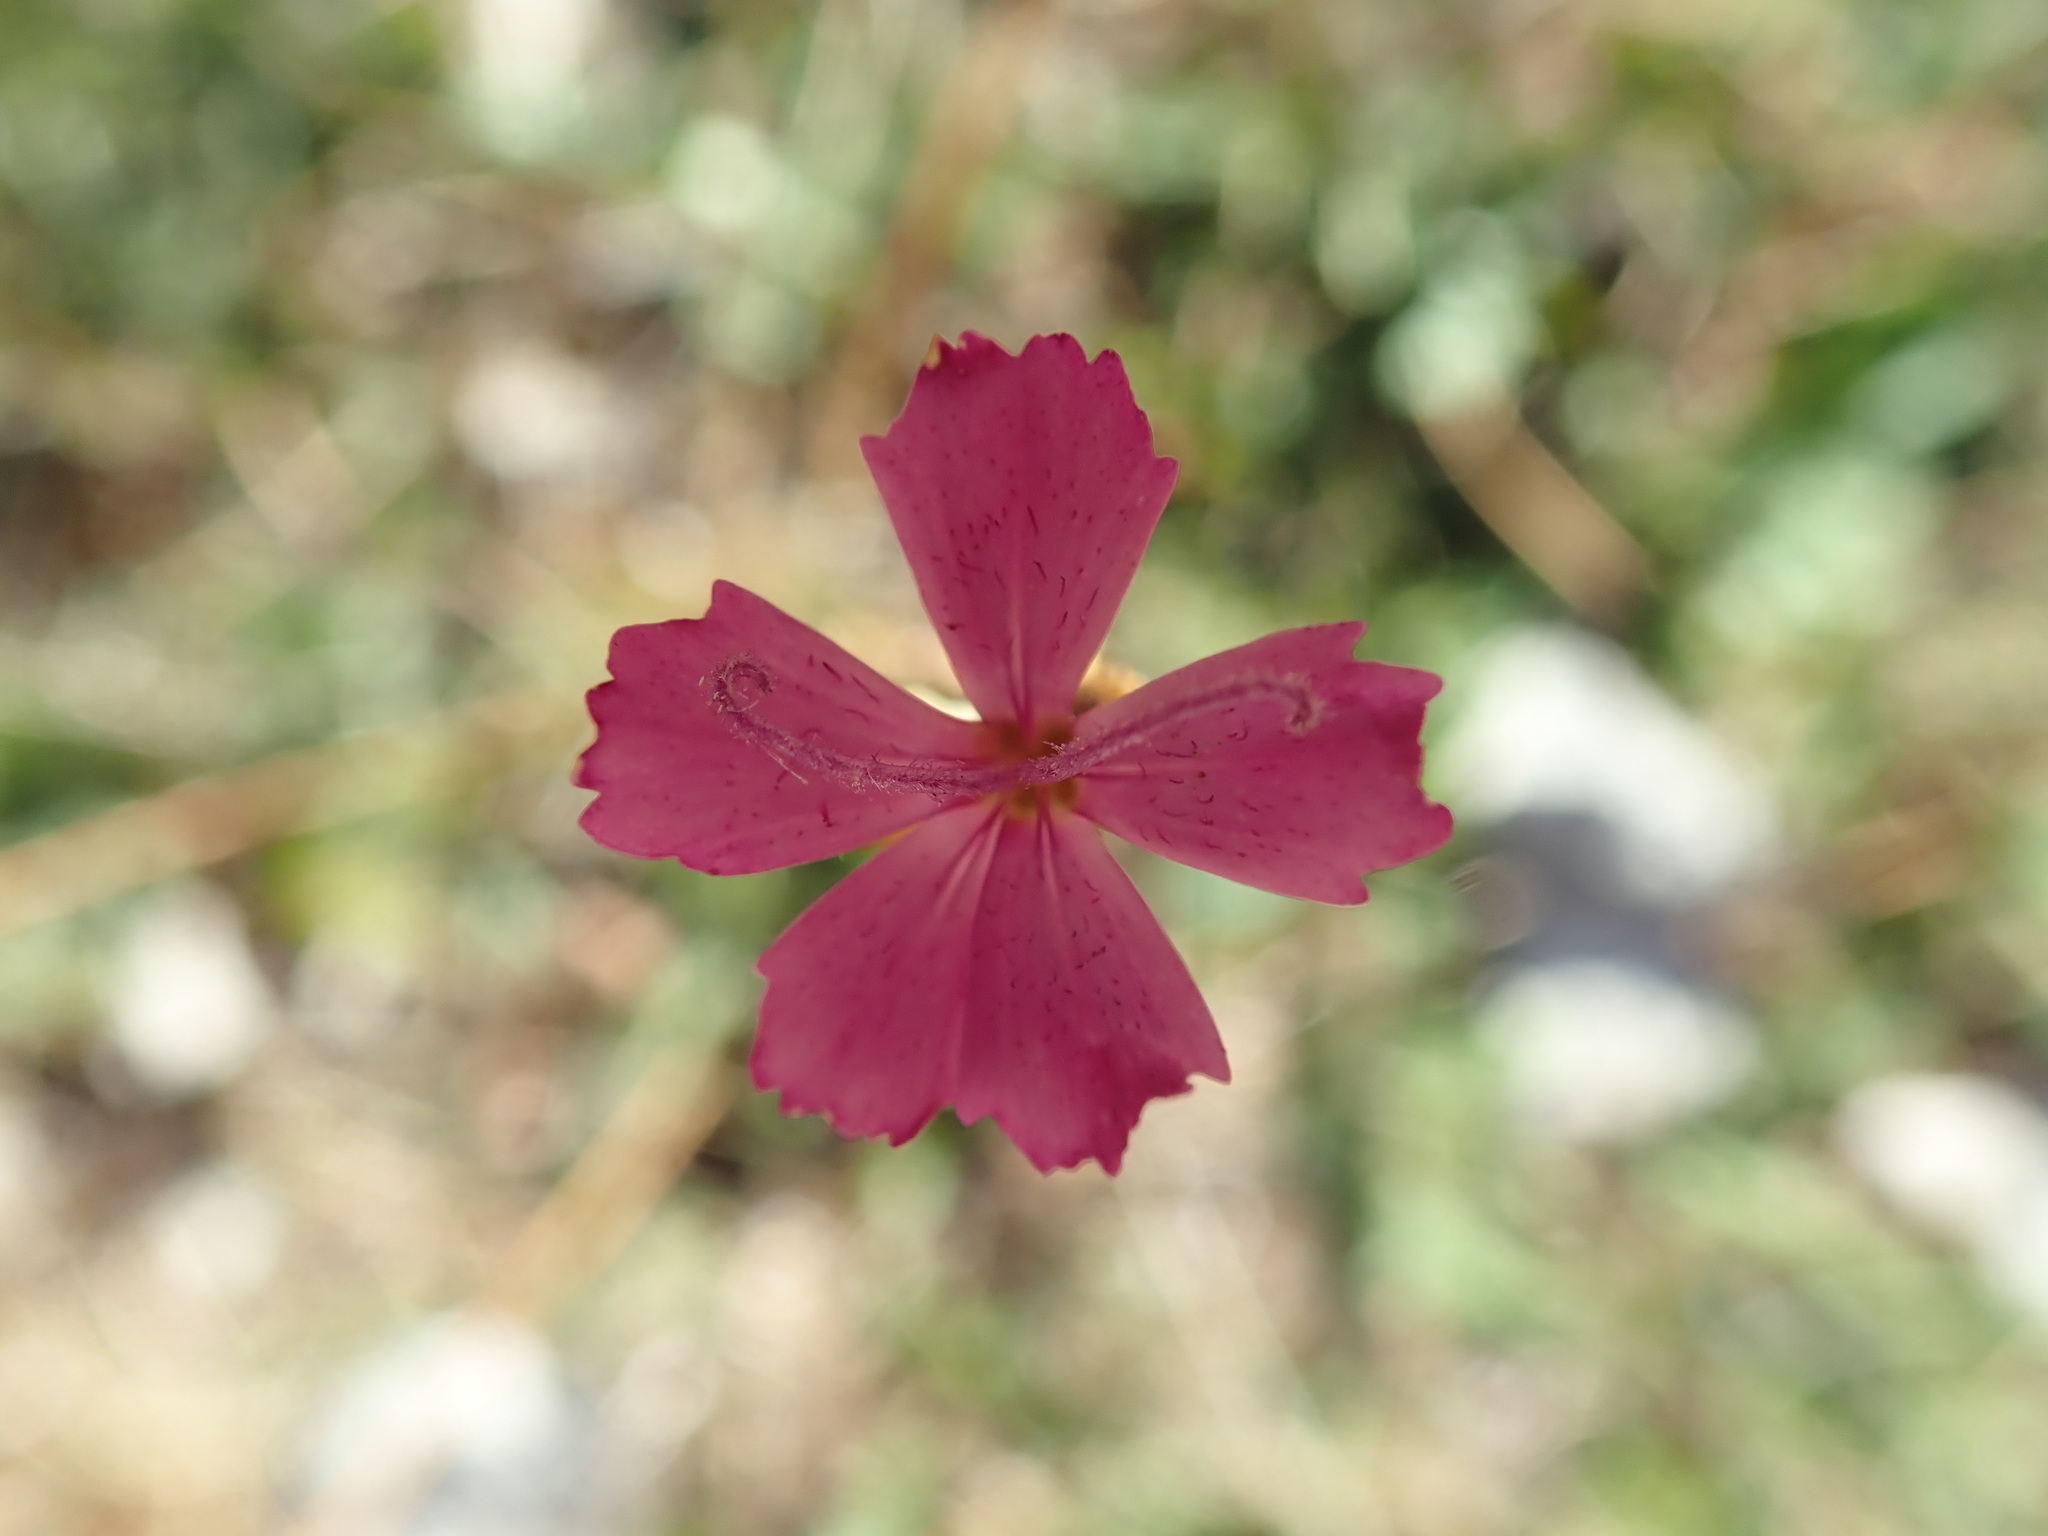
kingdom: Plantae
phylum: Tracheophyta
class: Magnoliopsida
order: Caryophyllales
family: Caryophyllaceae
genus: Dianthus
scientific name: Dianthus carthusianorum
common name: Carthusian pink
